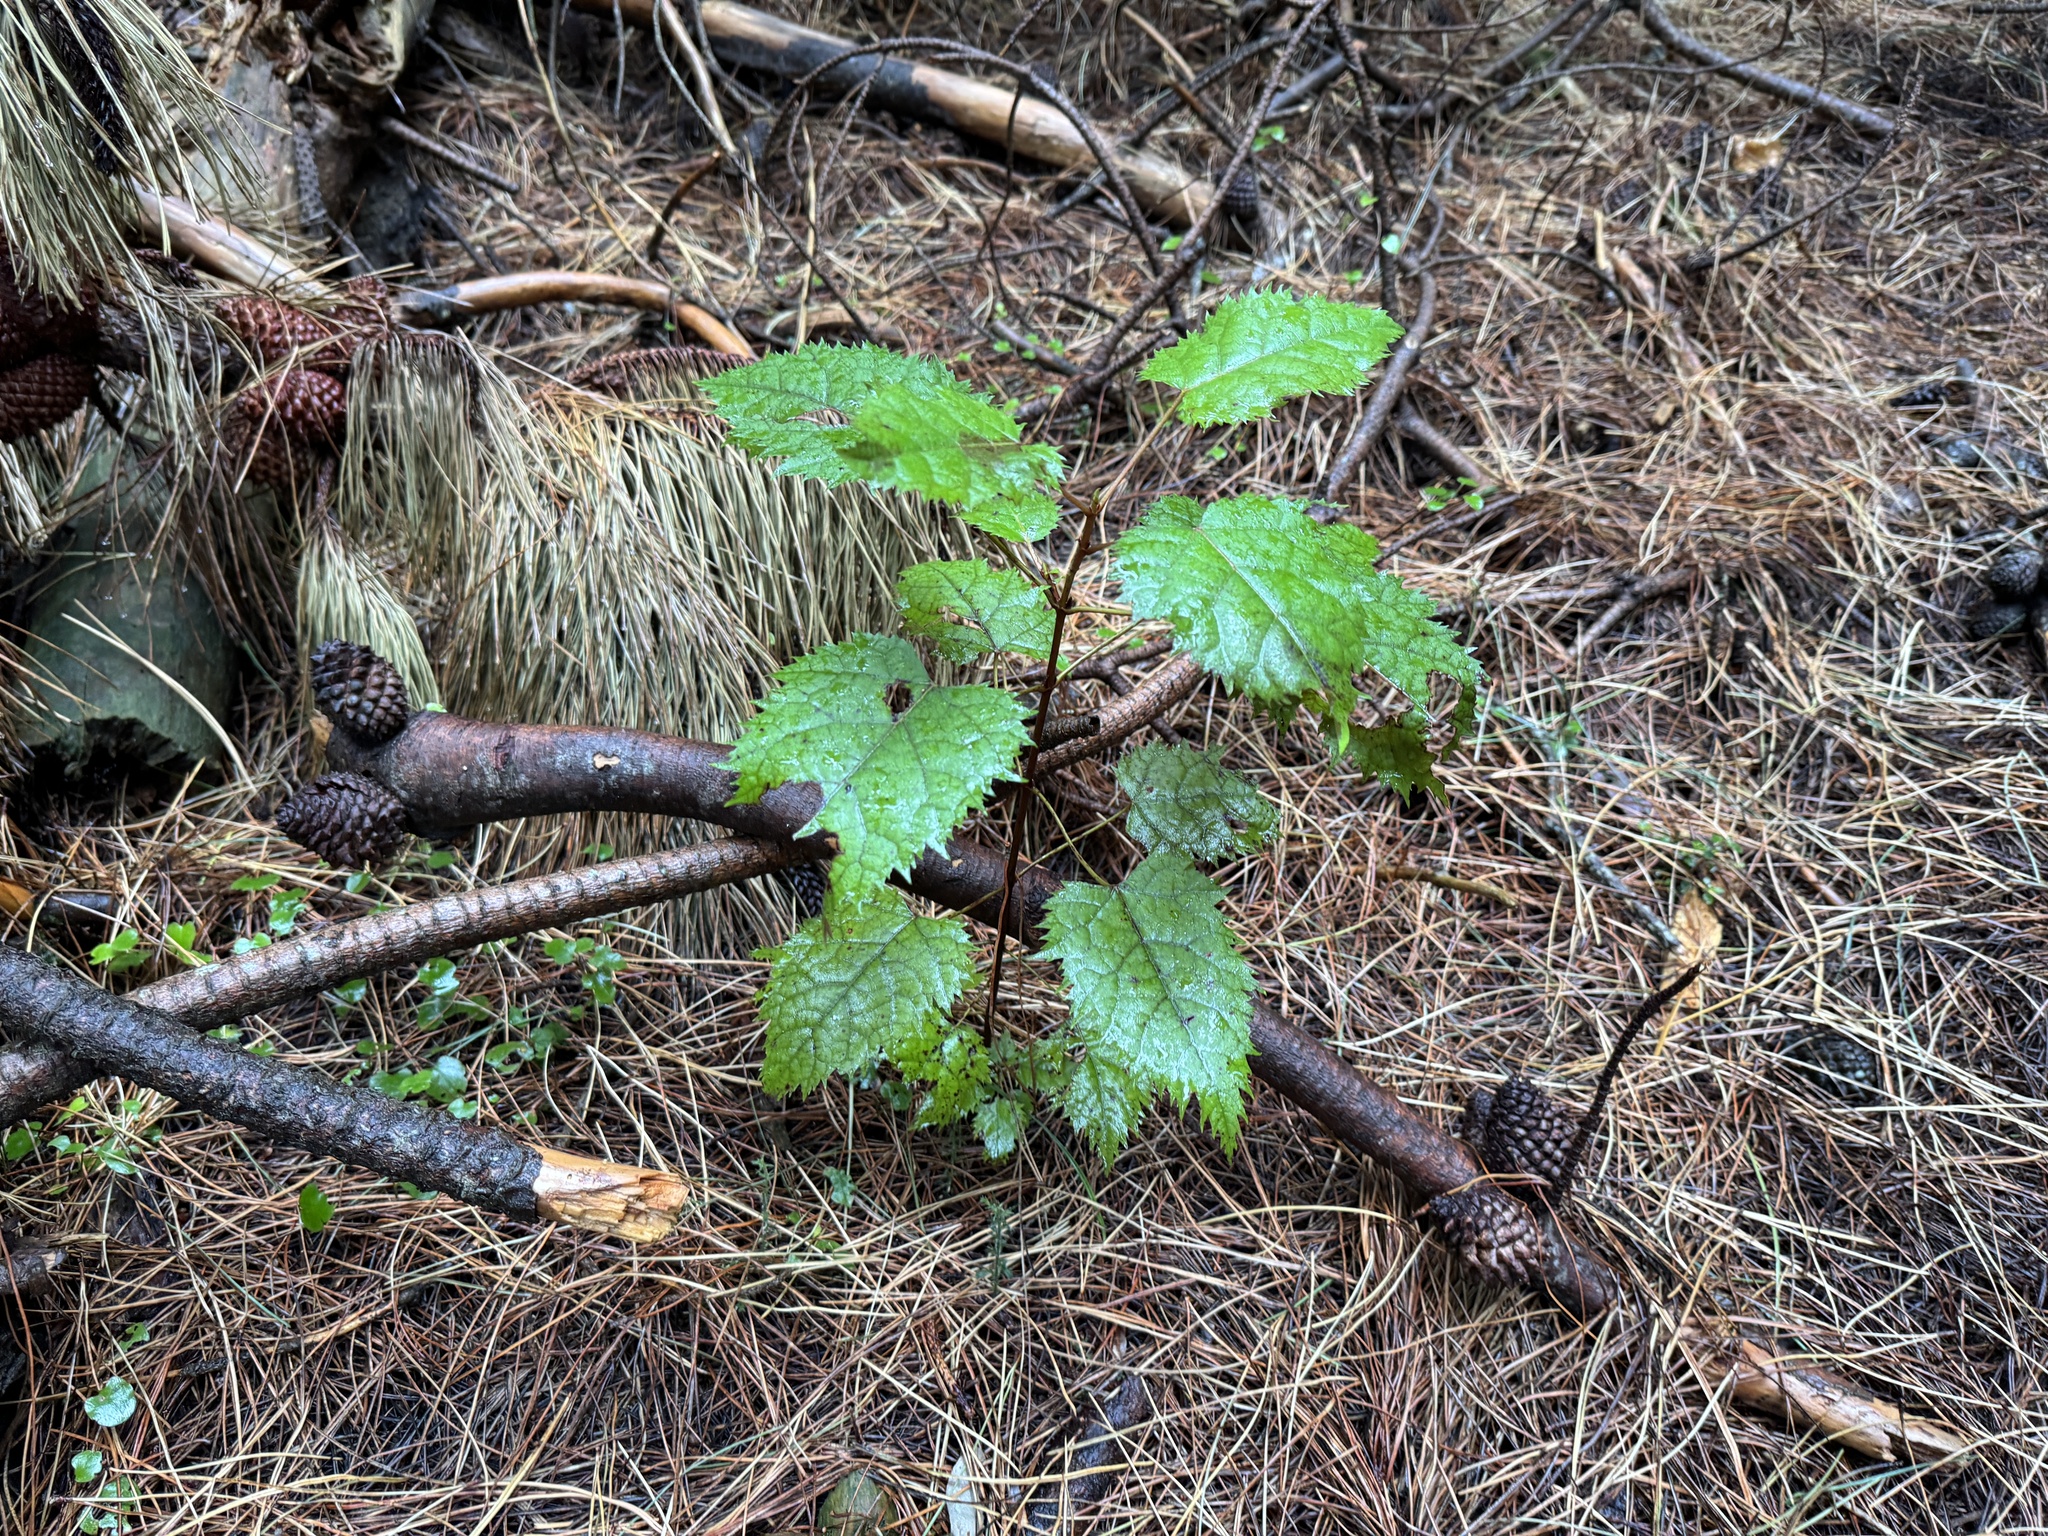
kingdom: Plantae
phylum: Tracheophyta
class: Magnoliopsida
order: Oxalidales
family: Elaeocarpaceae
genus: Aristotelia
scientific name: Aristotelia serrata
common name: New zealand wineberry
